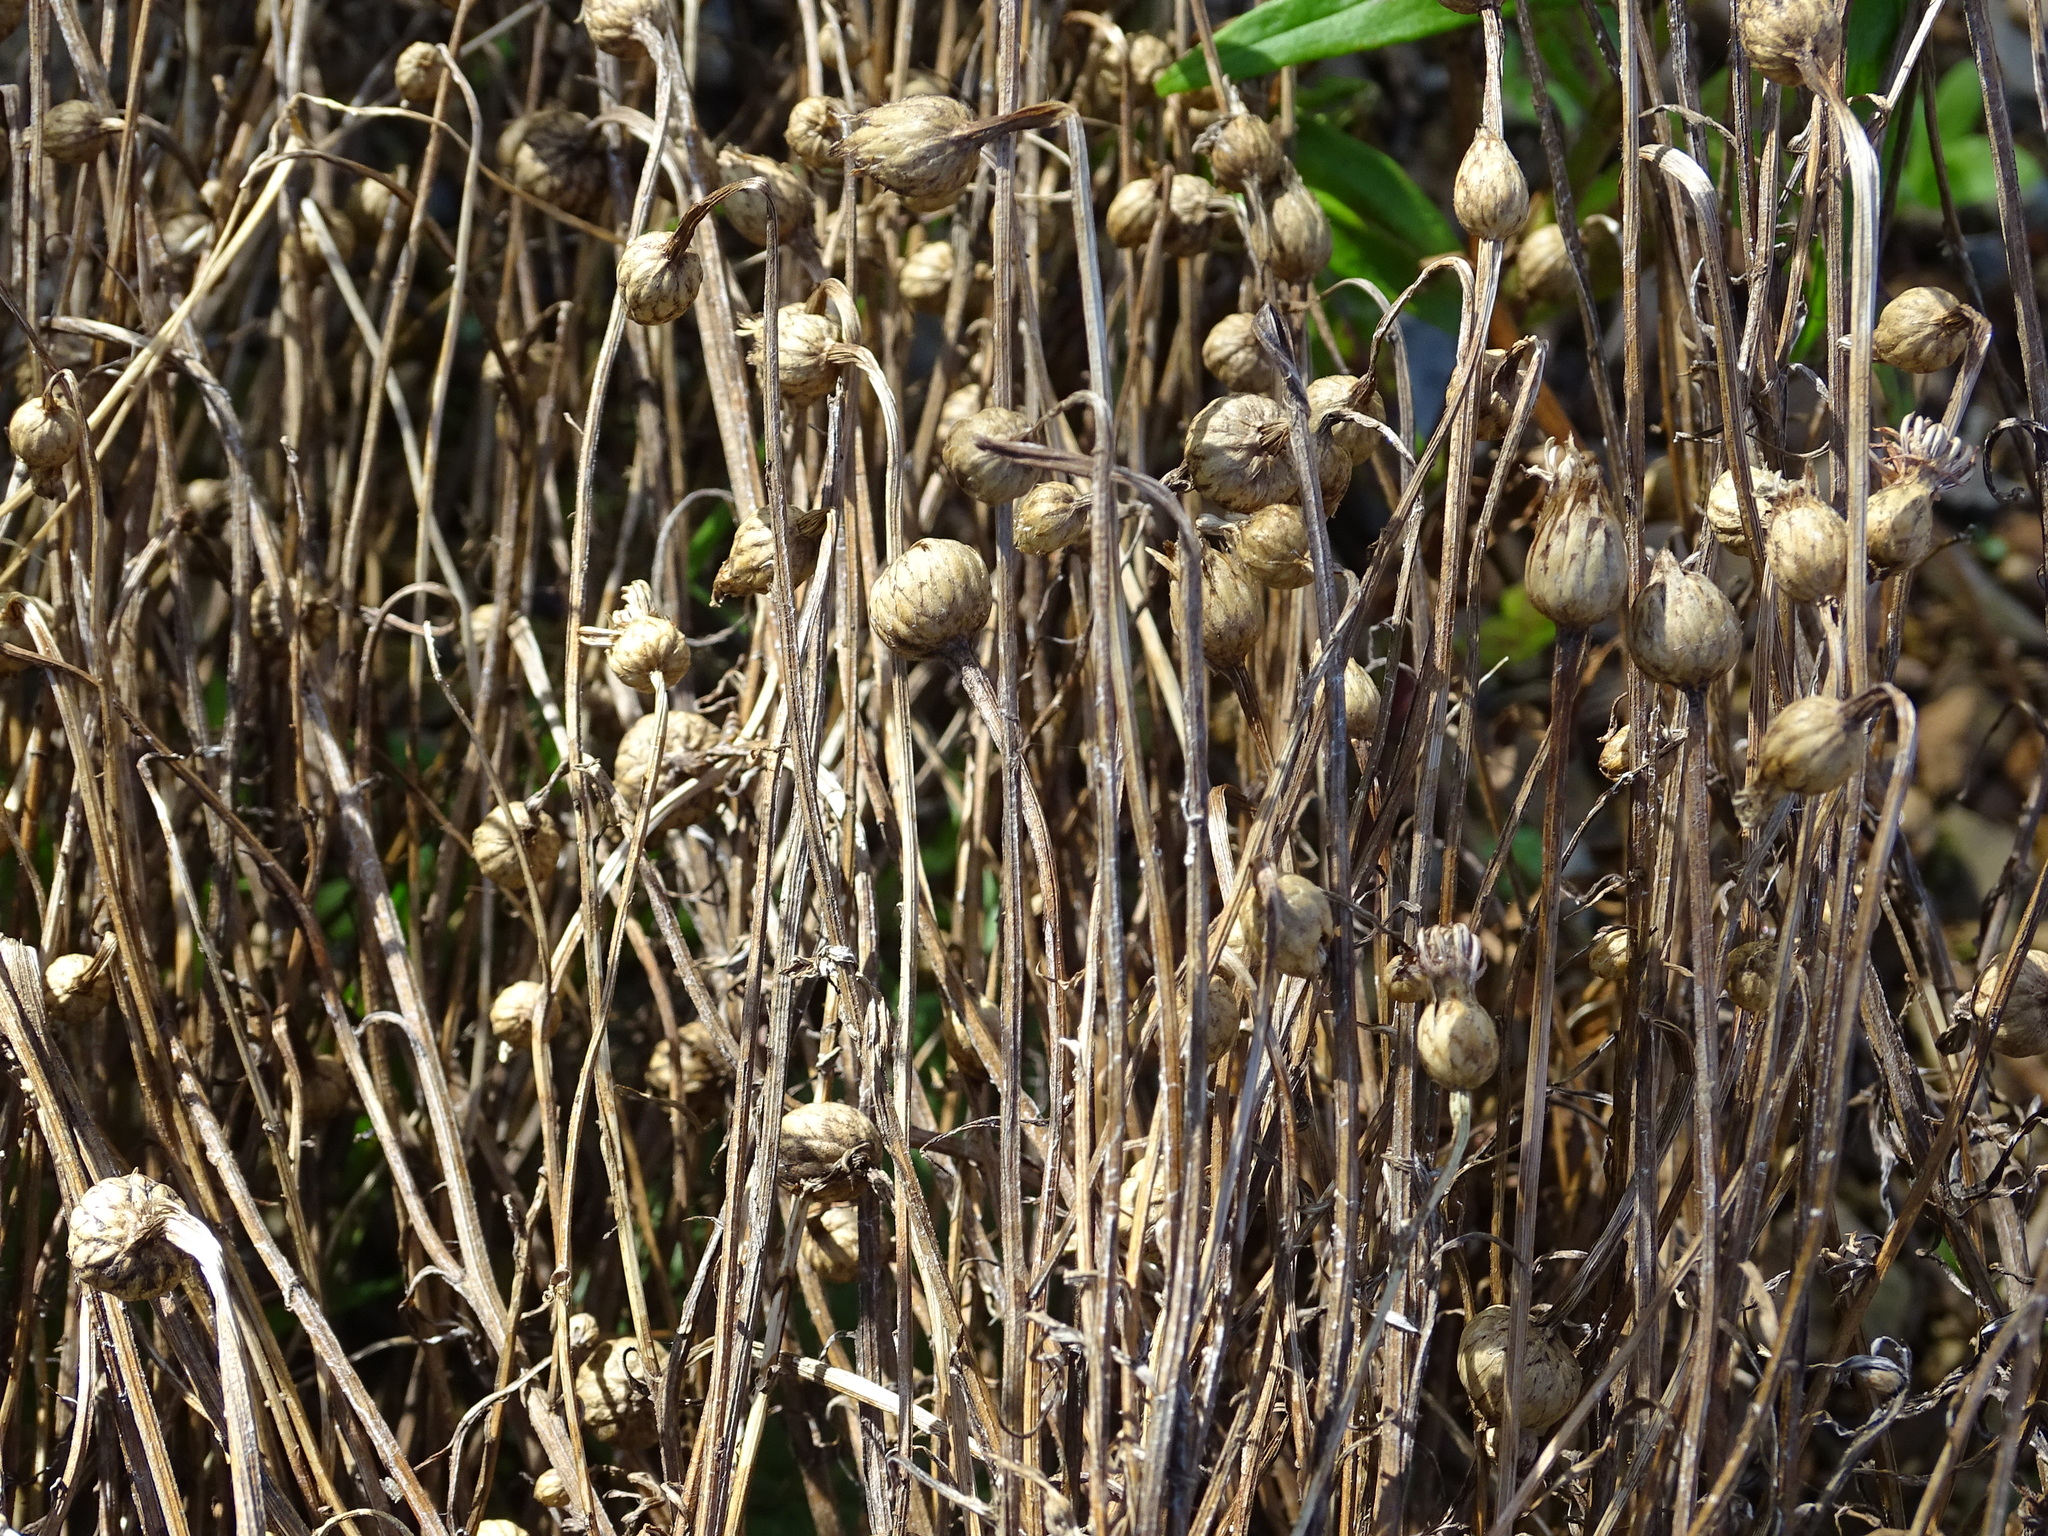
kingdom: Plantae
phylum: Tracheophyta
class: Magnoliopsida
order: Asterales
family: Asteraceae
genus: Centaurea
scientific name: Centaurea cyanus
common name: Cornflower
